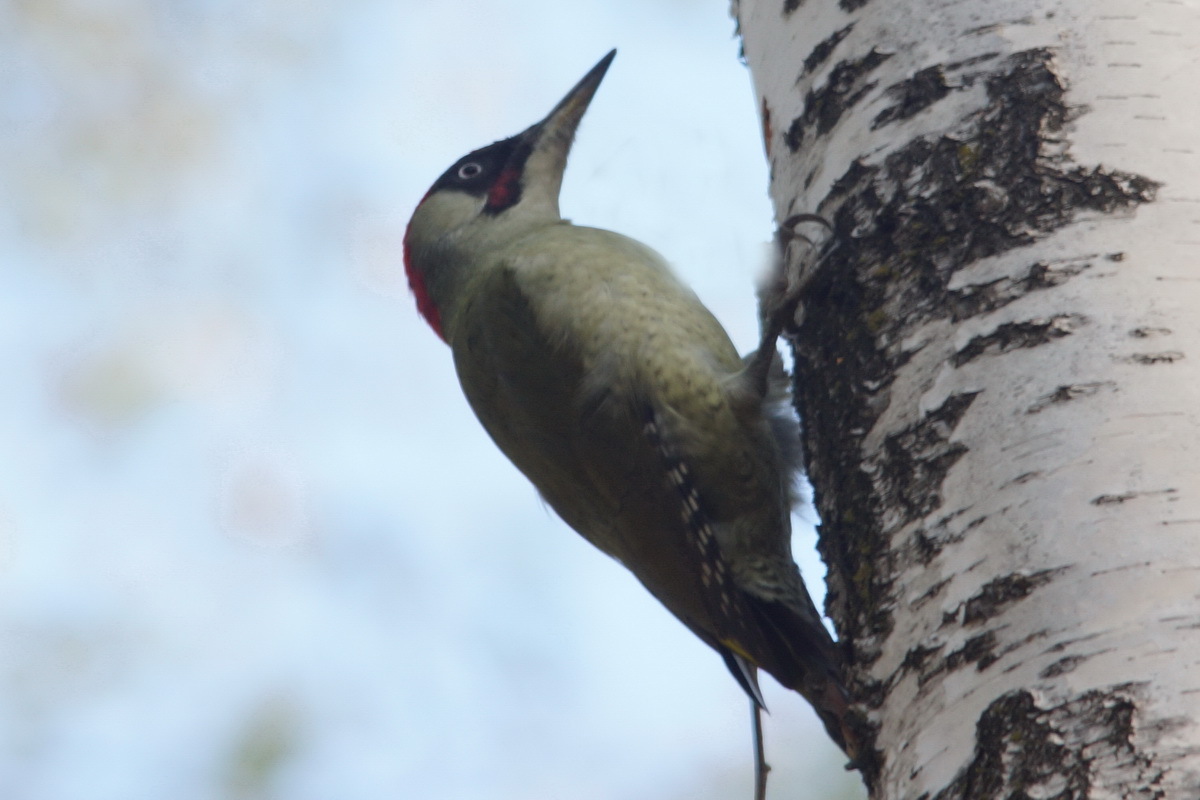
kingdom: Animalia
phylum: Chordata
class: Aves
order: Piciformes
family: Picidae
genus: Picus
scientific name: Picus viridis
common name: European green woodpecker
